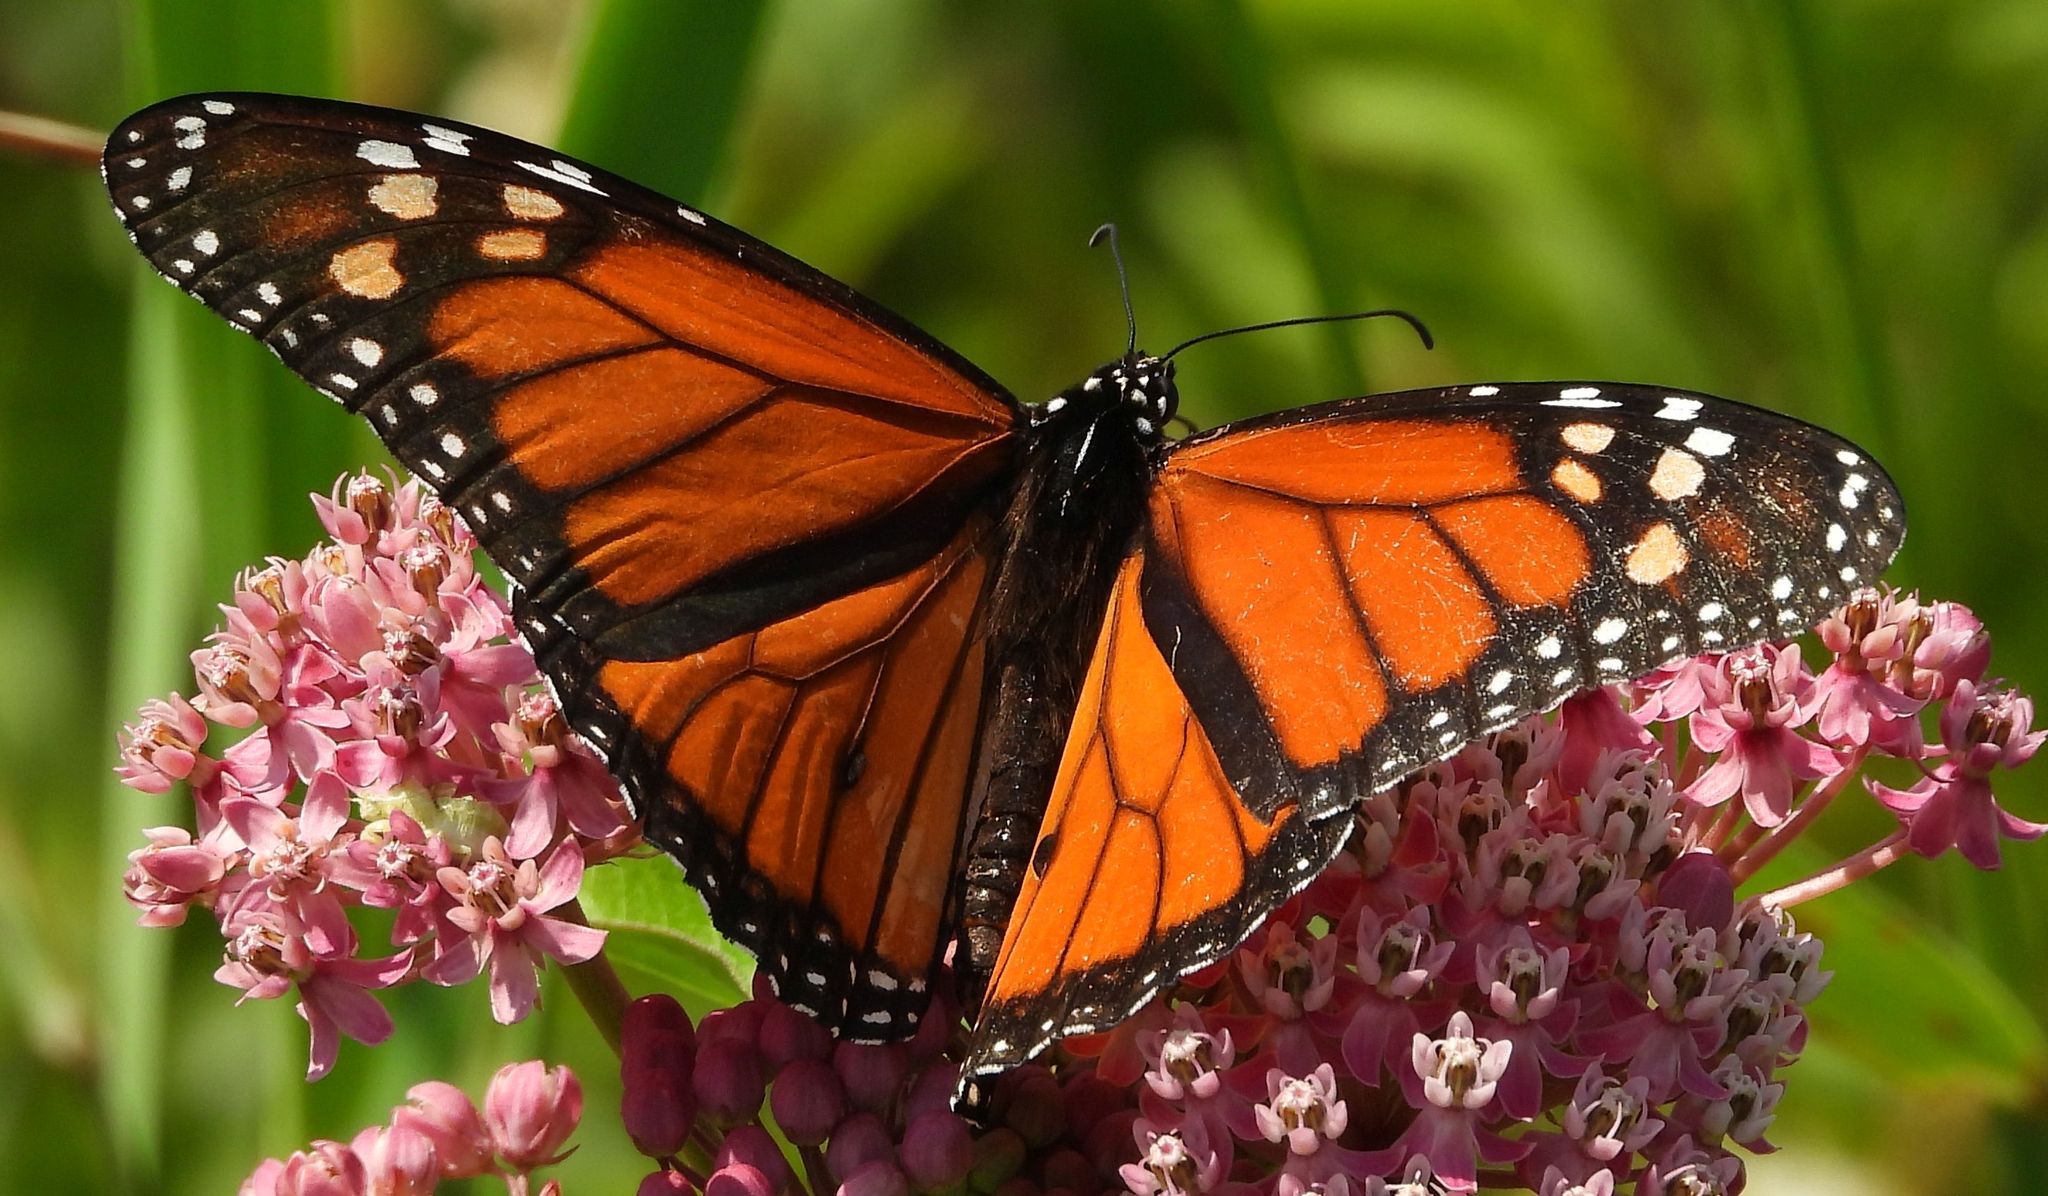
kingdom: Animalia
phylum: Arthropoda
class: Insecta
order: Lepidoptera
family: Nymphalidae
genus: Danaus
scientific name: Danaus plexippus
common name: Monarch
